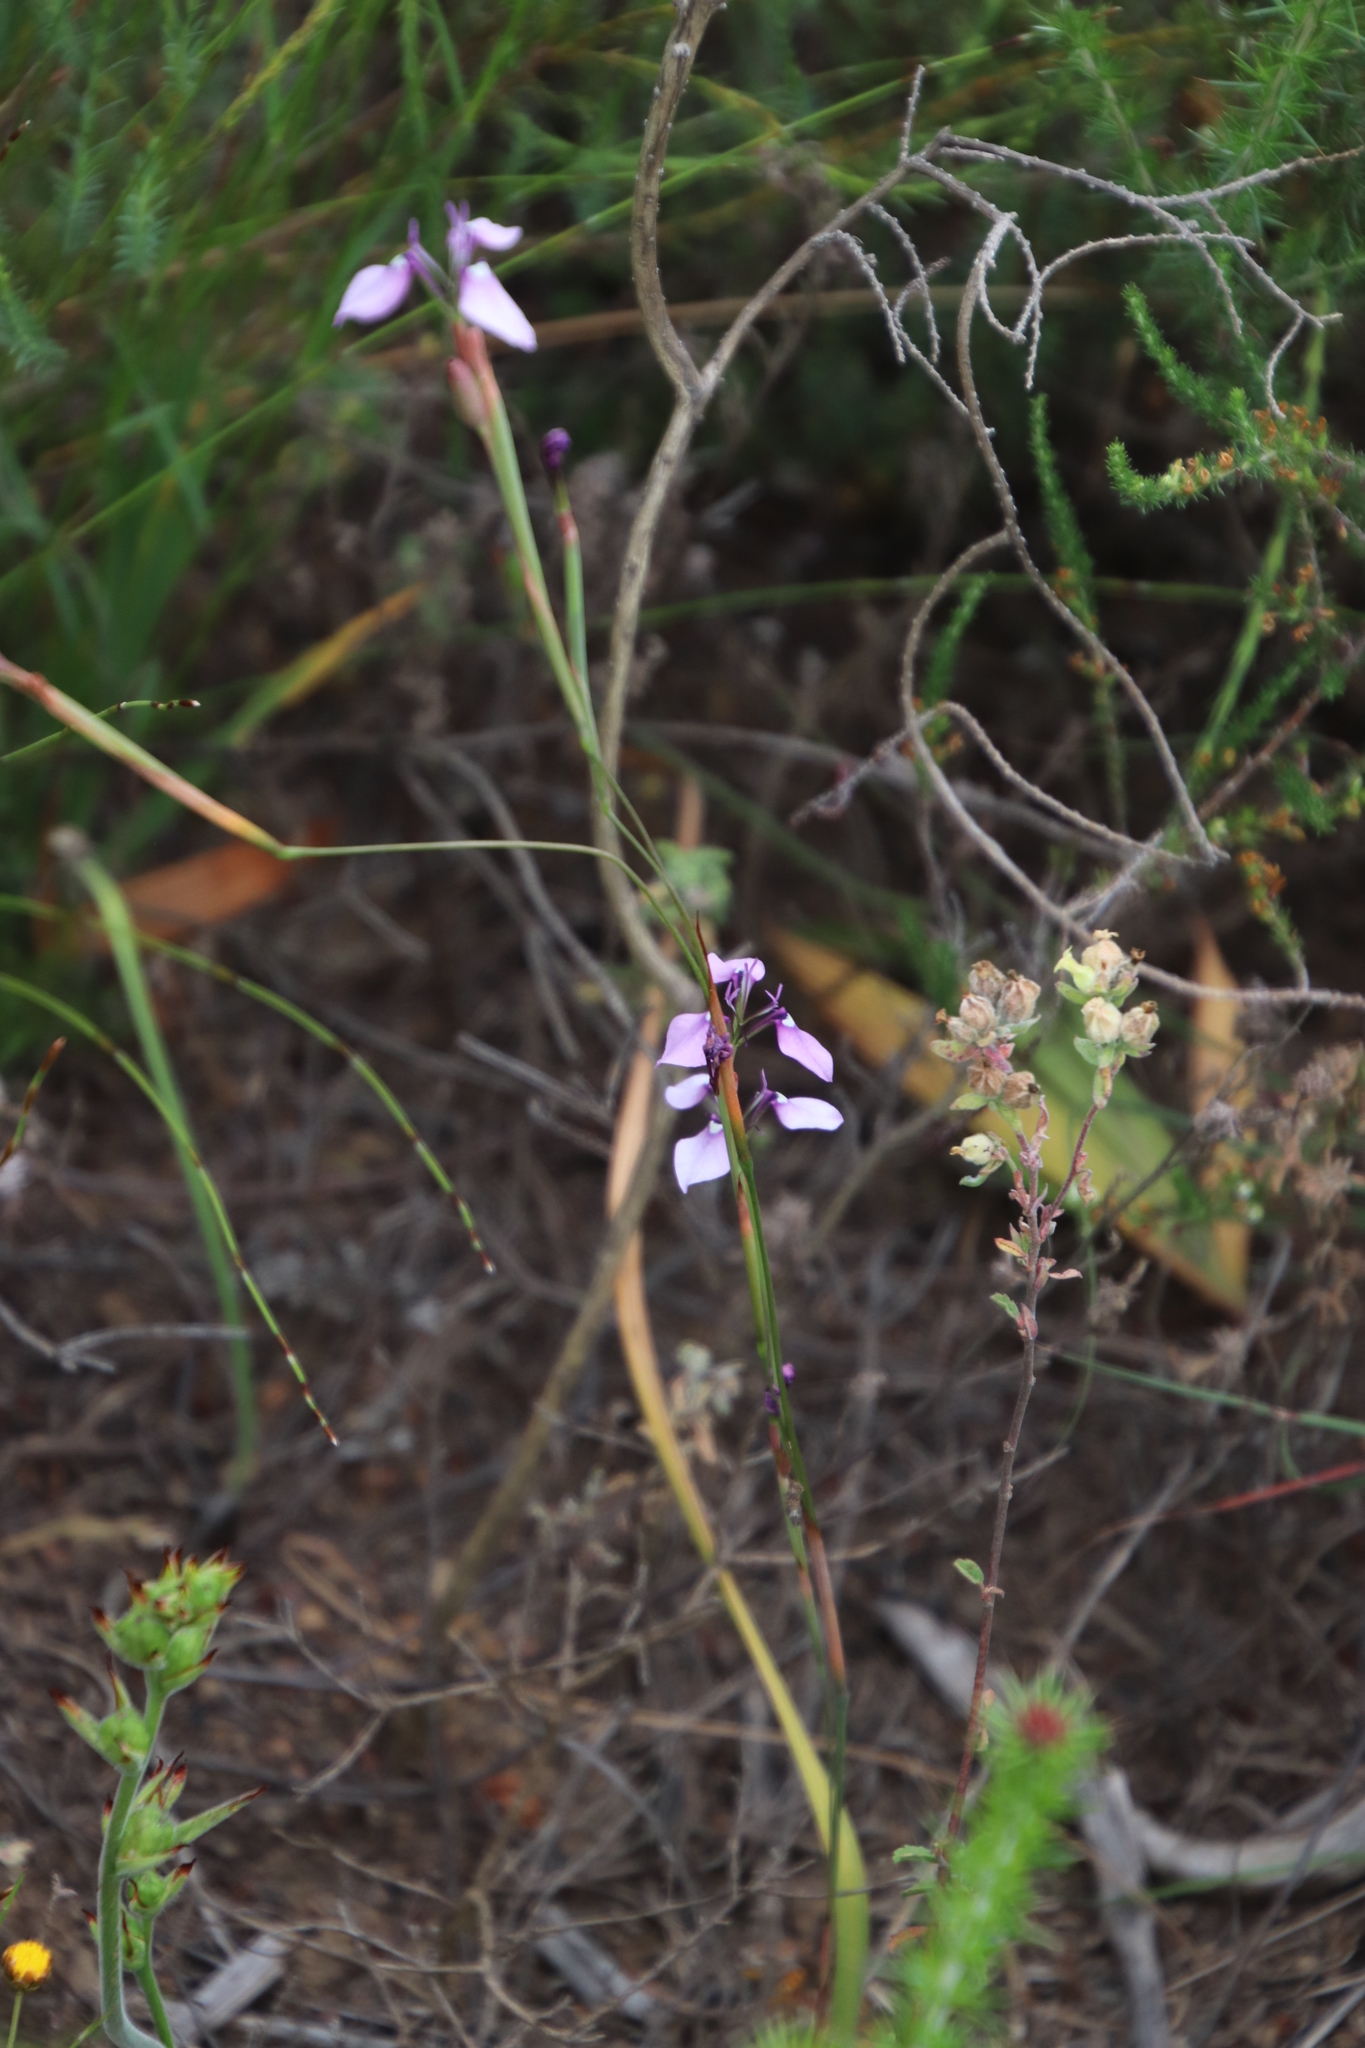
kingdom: Plantae
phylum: Tracheophyta
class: Liliopsida
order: Asparagales
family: Iridaceae
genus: Moraea
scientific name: Moraea debilis
